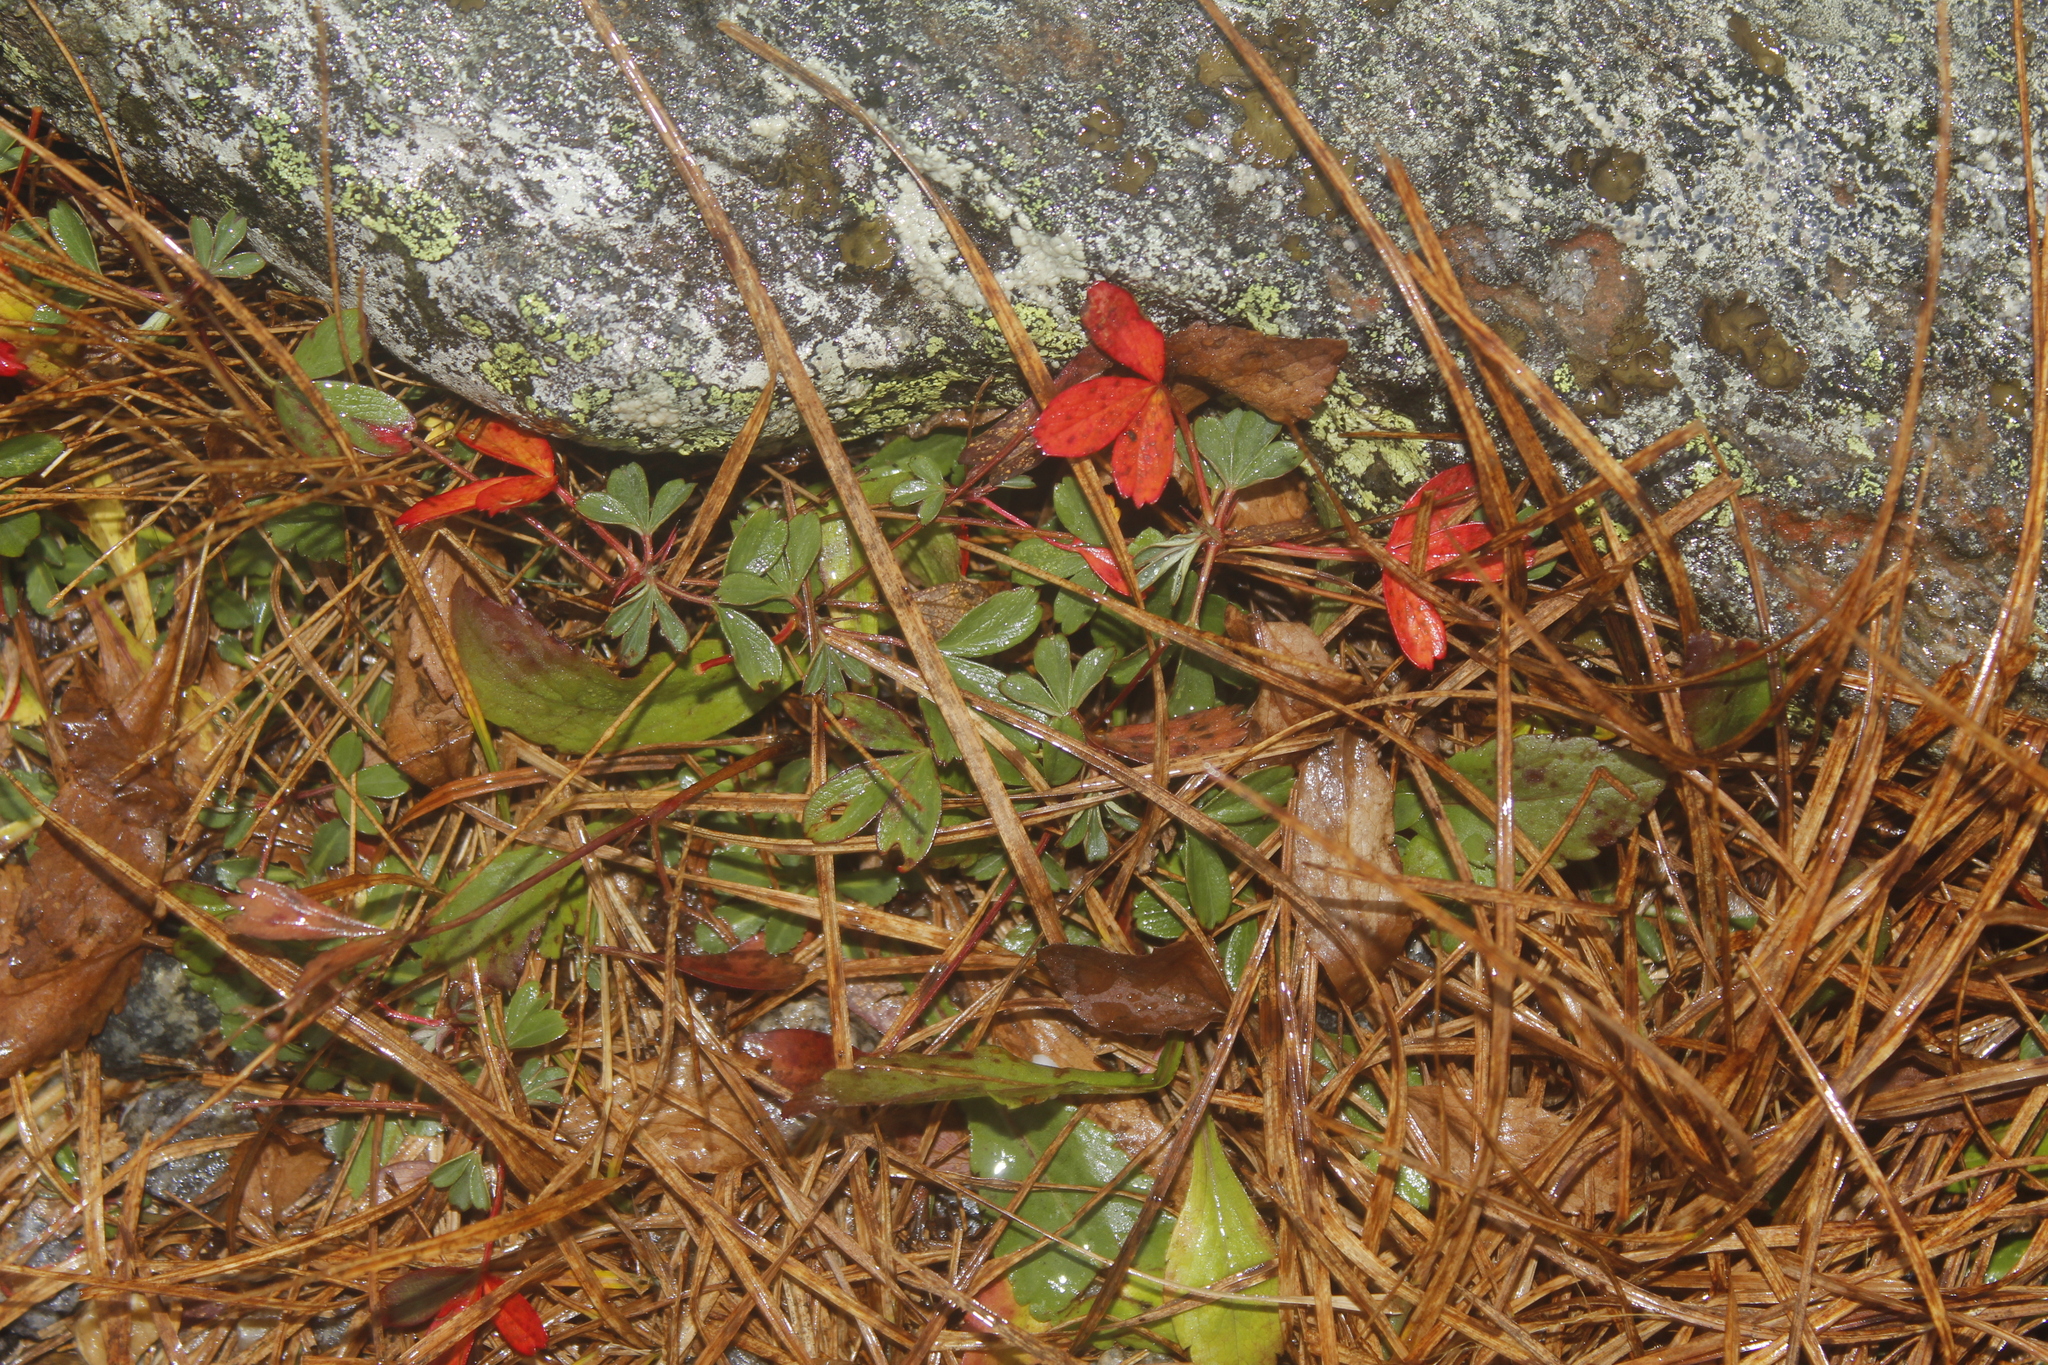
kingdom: Plantae
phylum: Tracheophyta
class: Magnoliopsida
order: Rosales
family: Rosaceae
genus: Sibbaldia
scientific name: Sibbaldia tridentata
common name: Three-toothed cinquefoil
